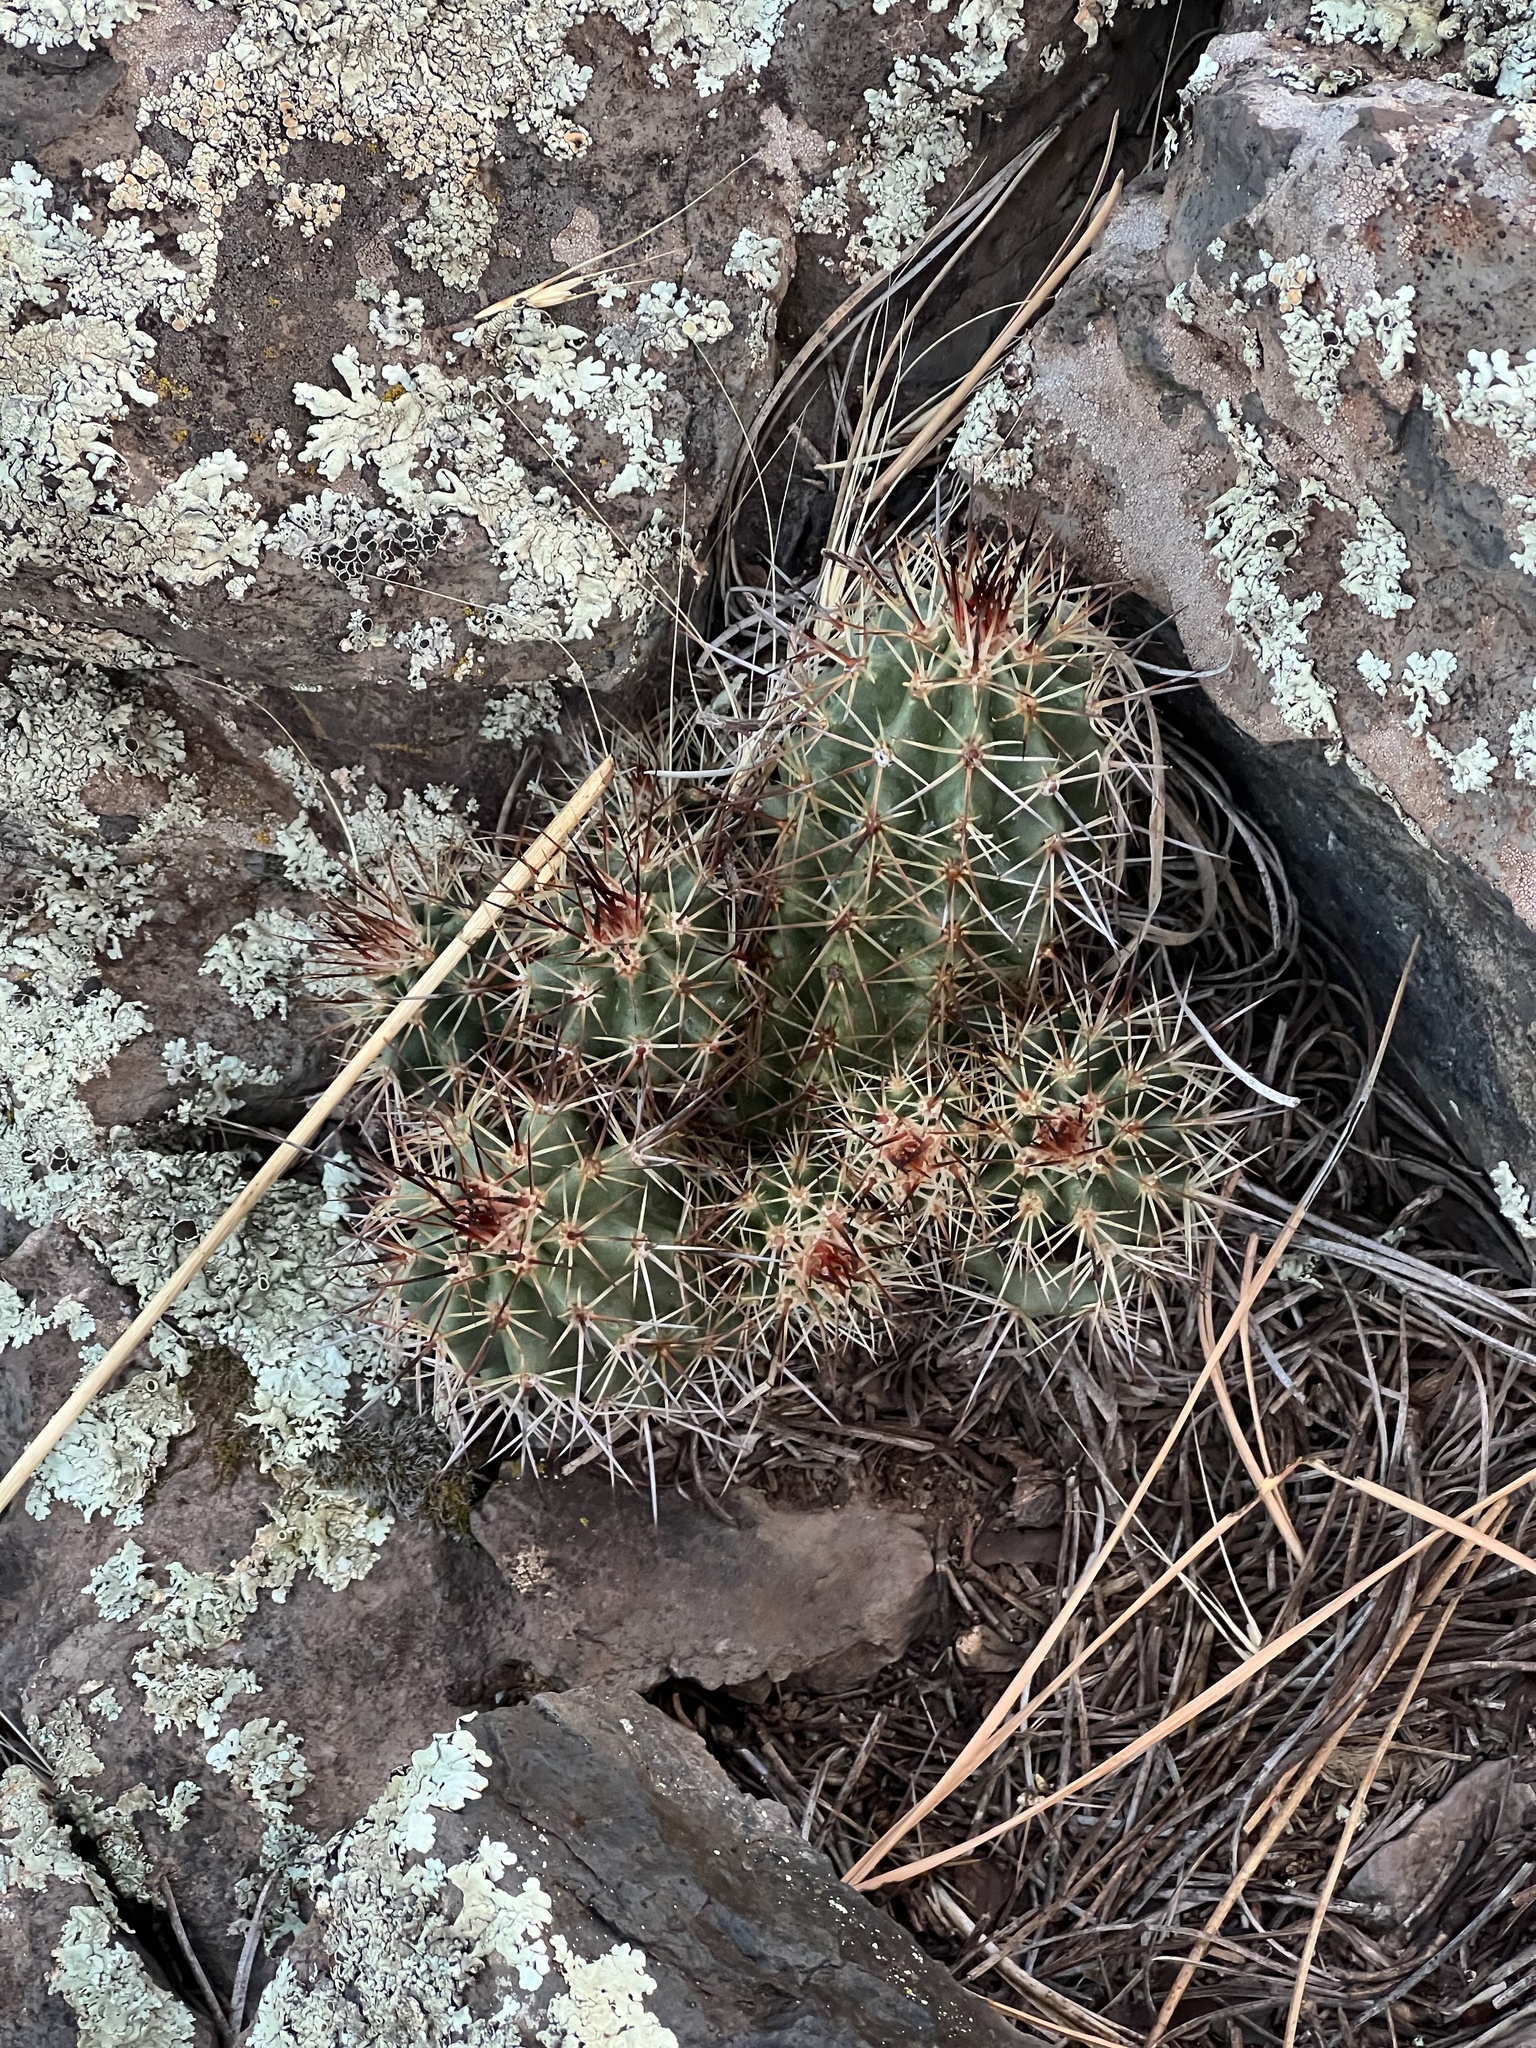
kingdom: Plantae
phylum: Tracheophyta
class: Magnoliopsida
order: Caryophyllales
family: Cactaceae
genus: Echinocereus
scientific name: Echinocereus bakeri
